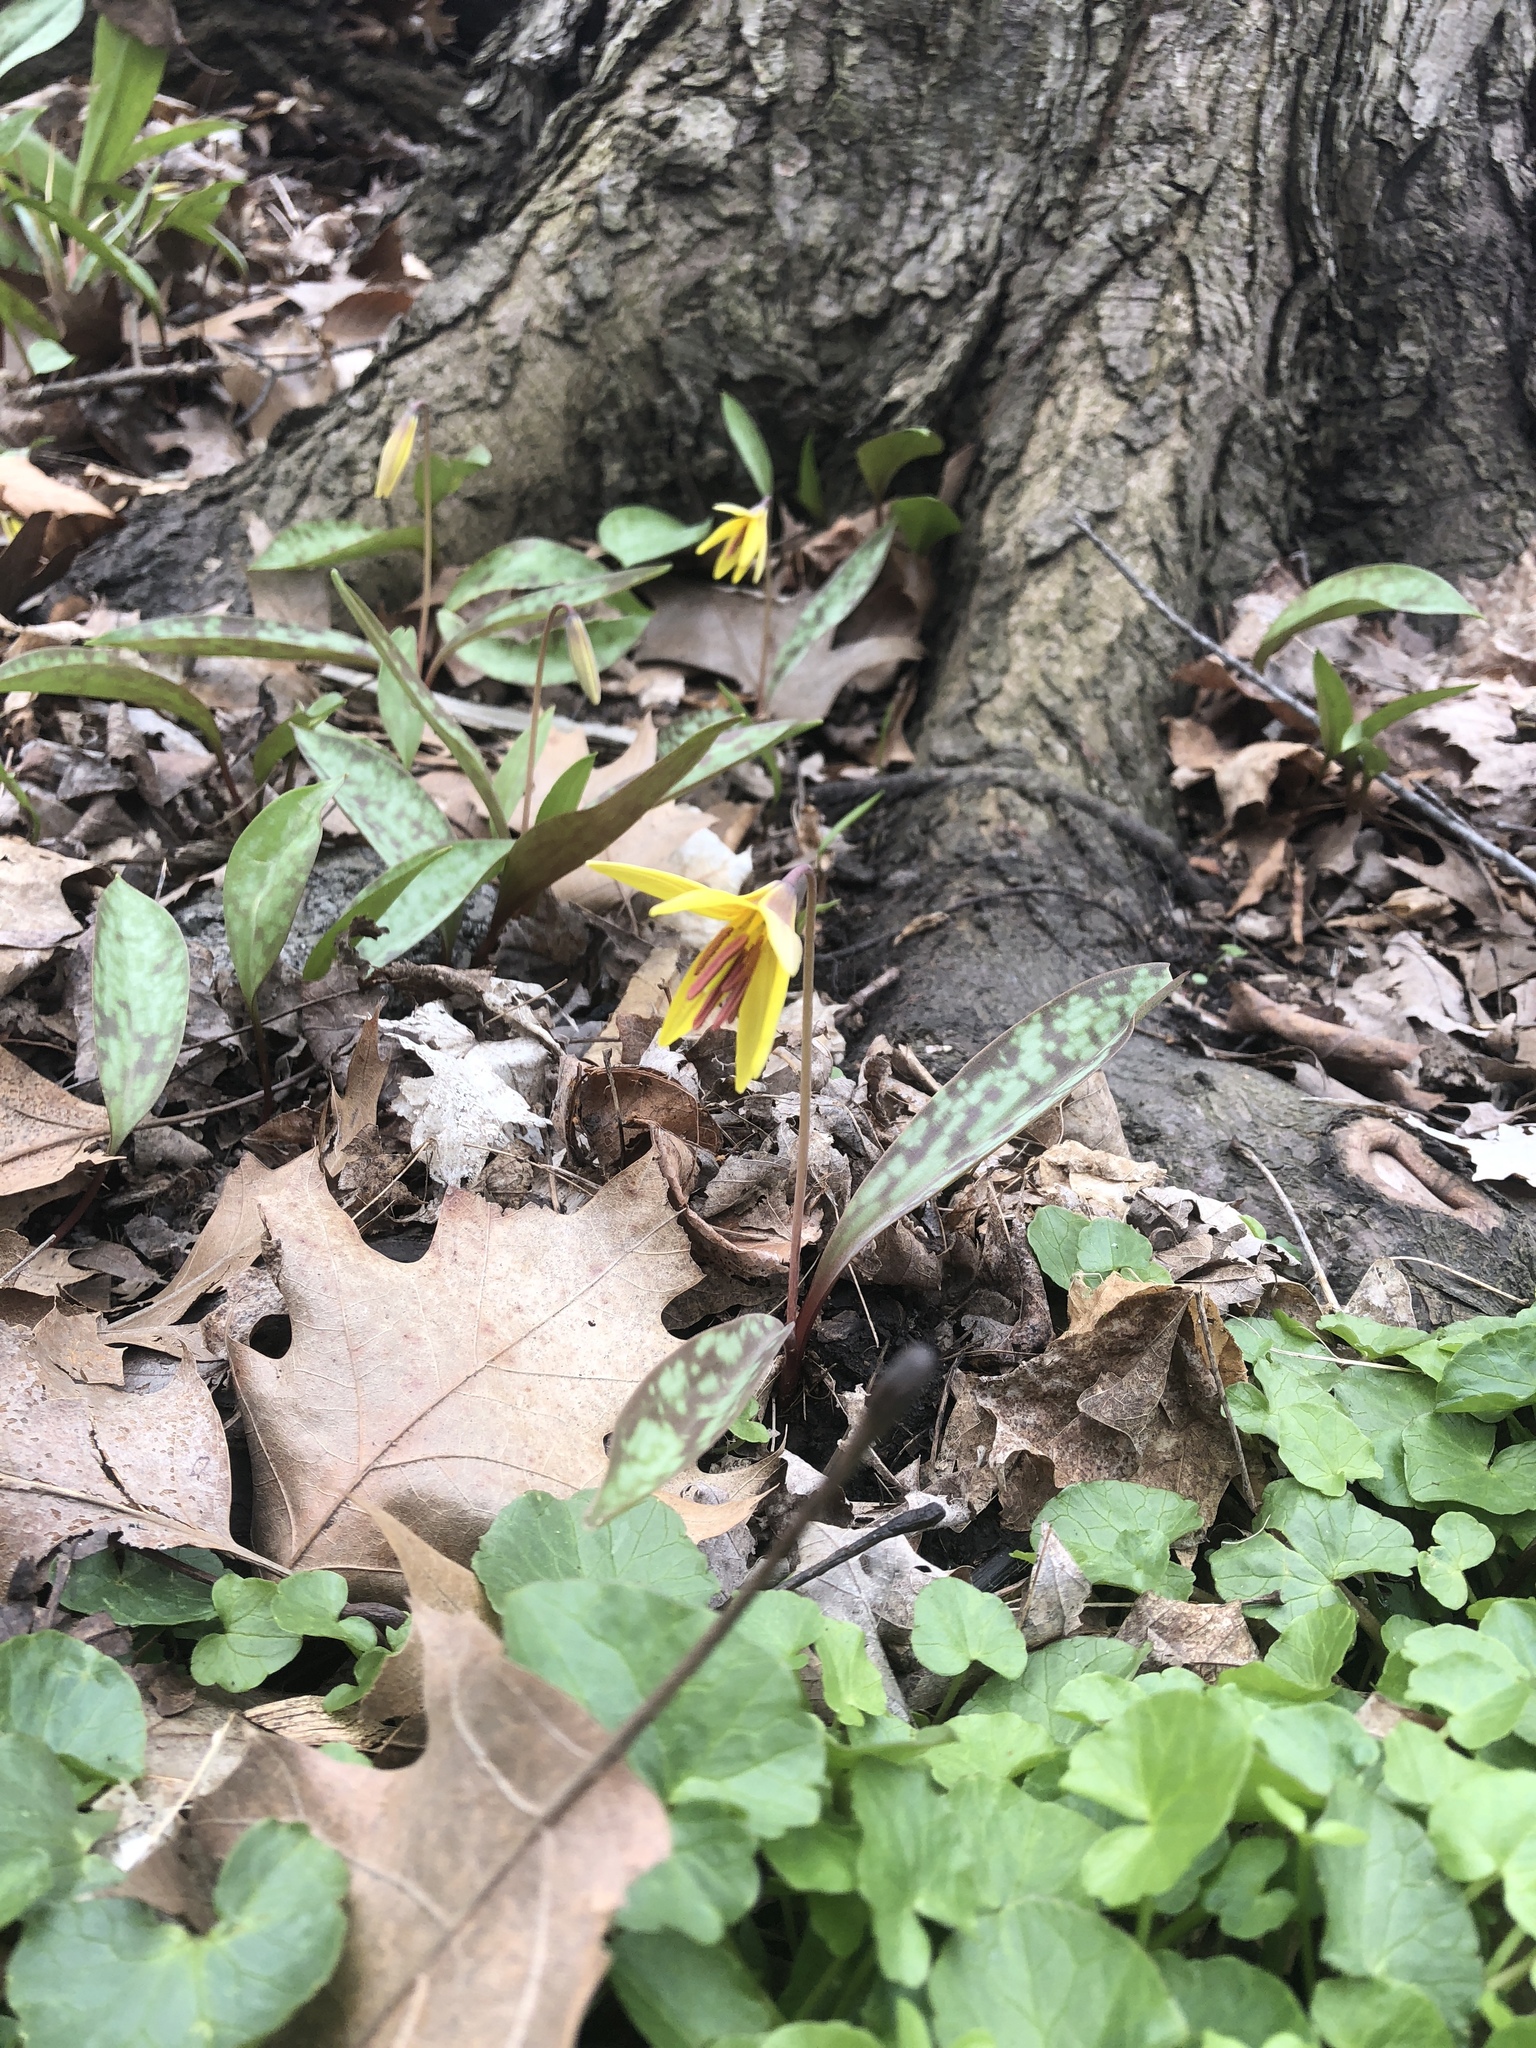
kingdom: Plantae
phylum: Tracheophyta
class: Liliopsida
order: Liliales
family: Liliaceae
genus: Erythronium
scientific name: Erythronium americanum
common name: Yellow adder's-tongue
